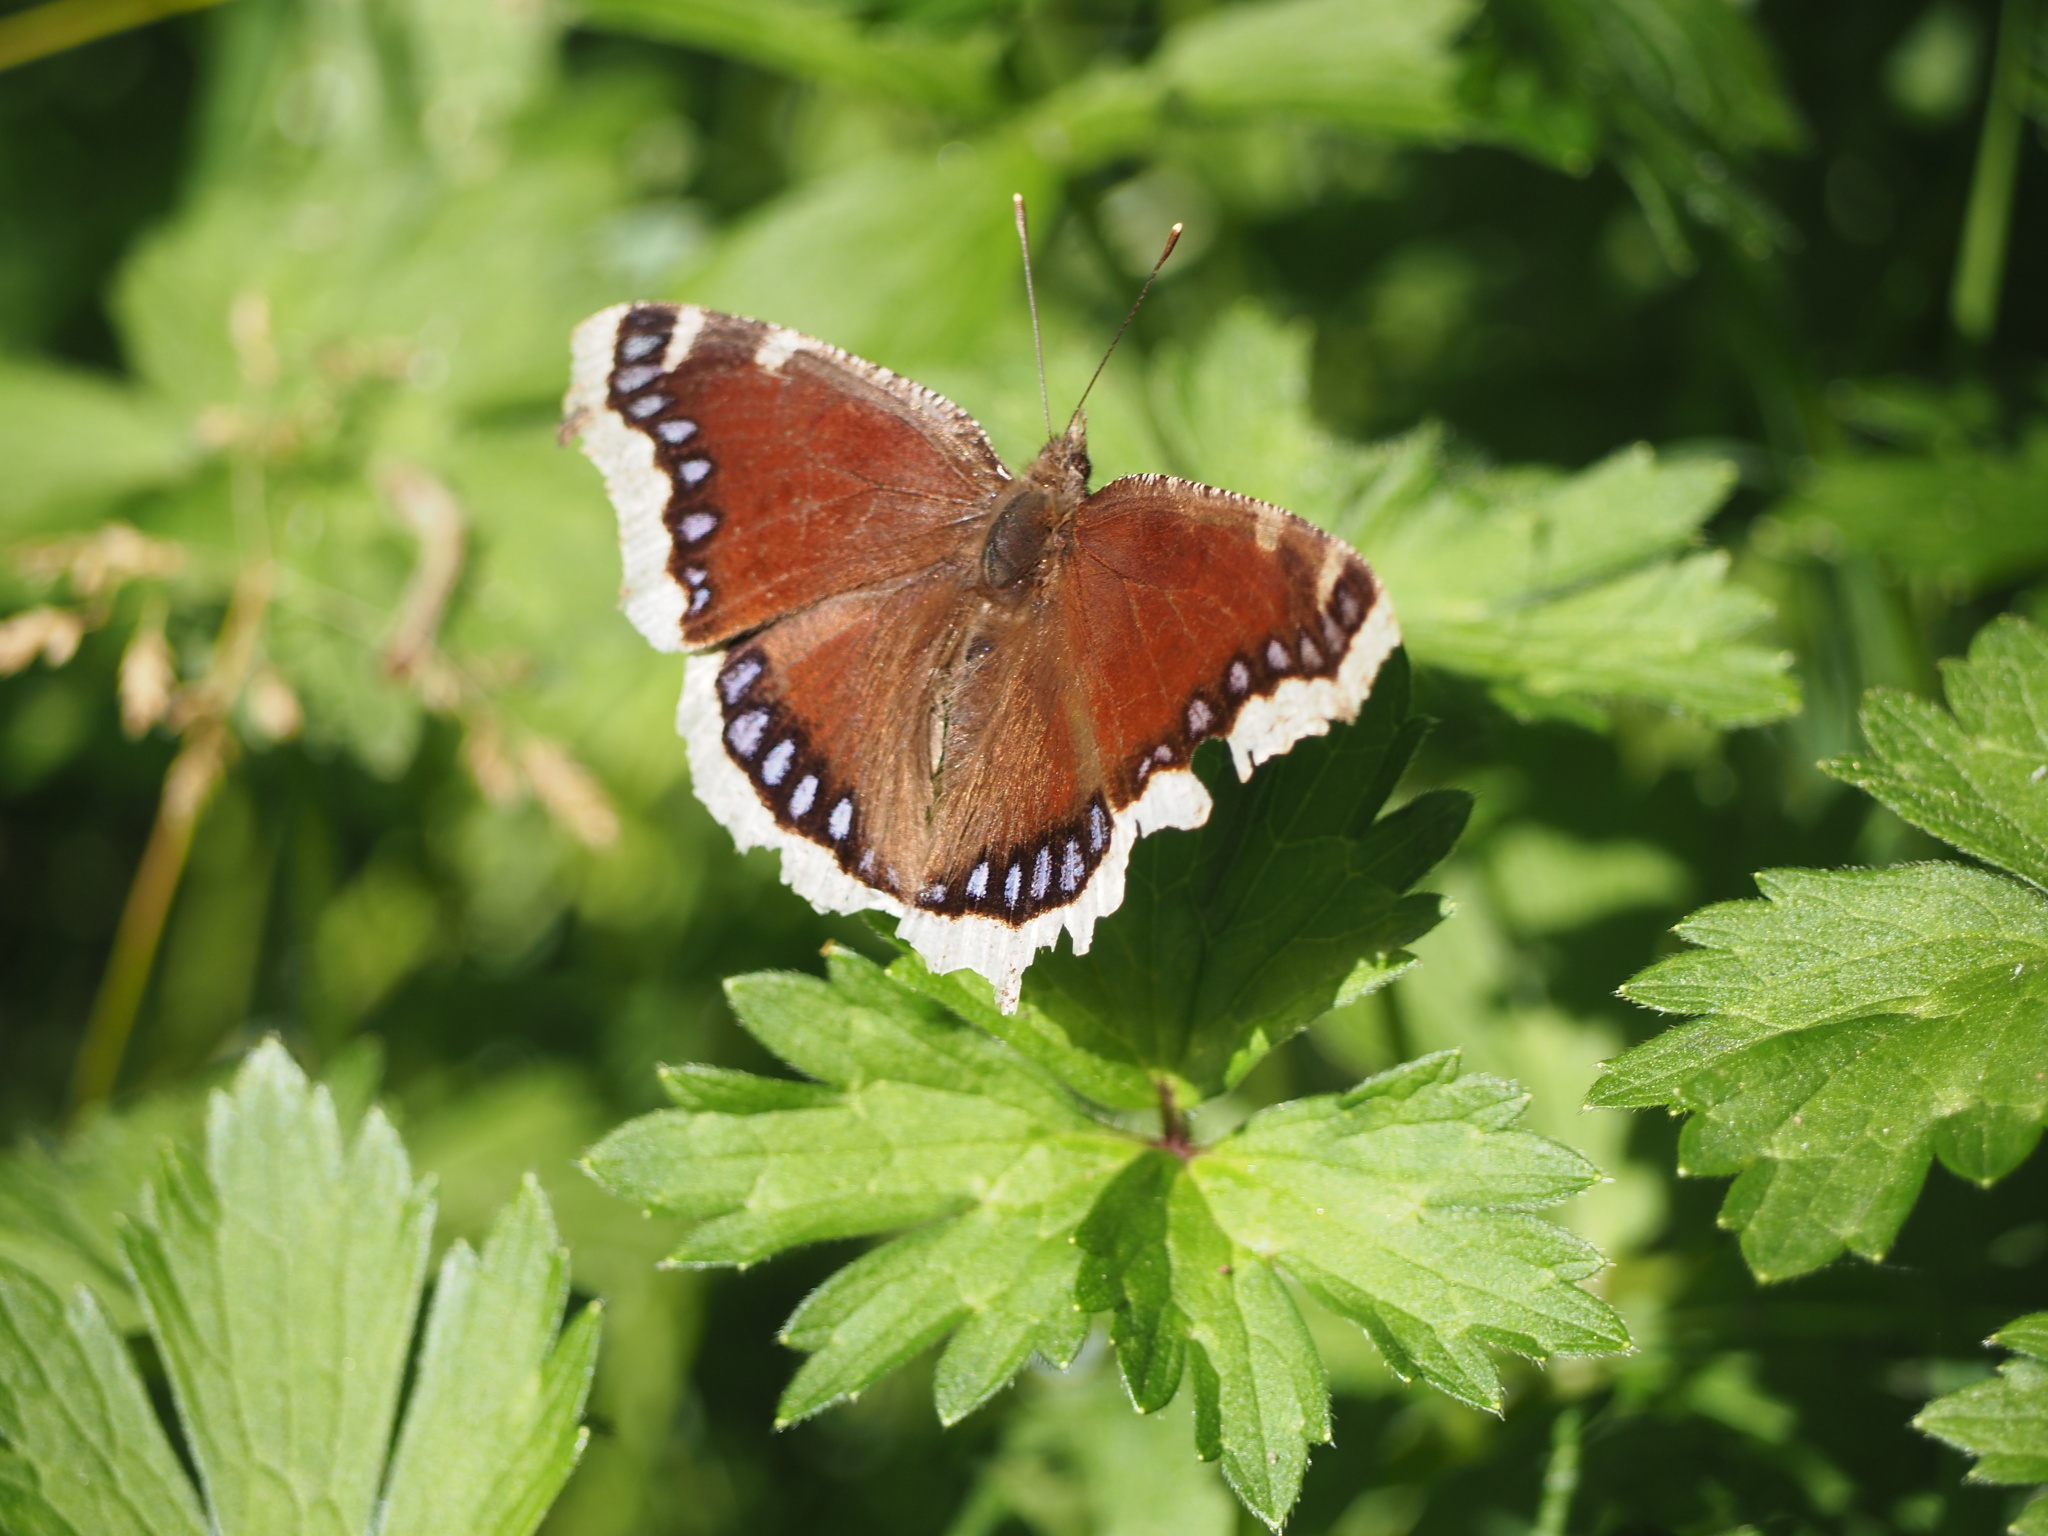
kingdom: Animalia
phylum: Arthropoda
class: Insecta
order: Lepidoptera
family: Nymphalidae
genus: Nymphalis
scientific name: Nymphalis antiopa
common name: Camberwell beauty
